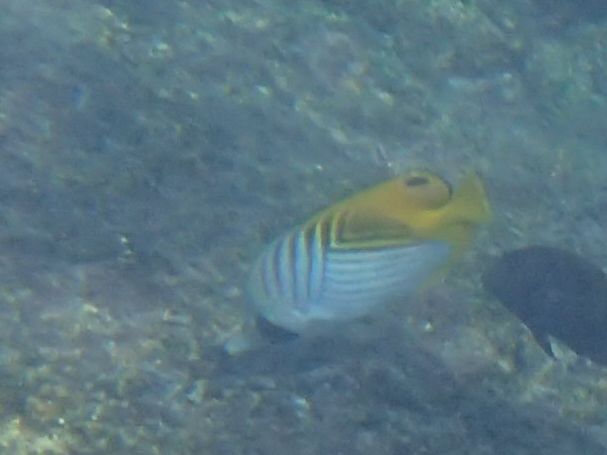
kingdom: Animalia
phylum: Chordata
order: Perciformes
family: Chaetodontidae
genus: Chaetodon
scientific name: Chaetodon auriga
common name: Threadfin butterflyfish
